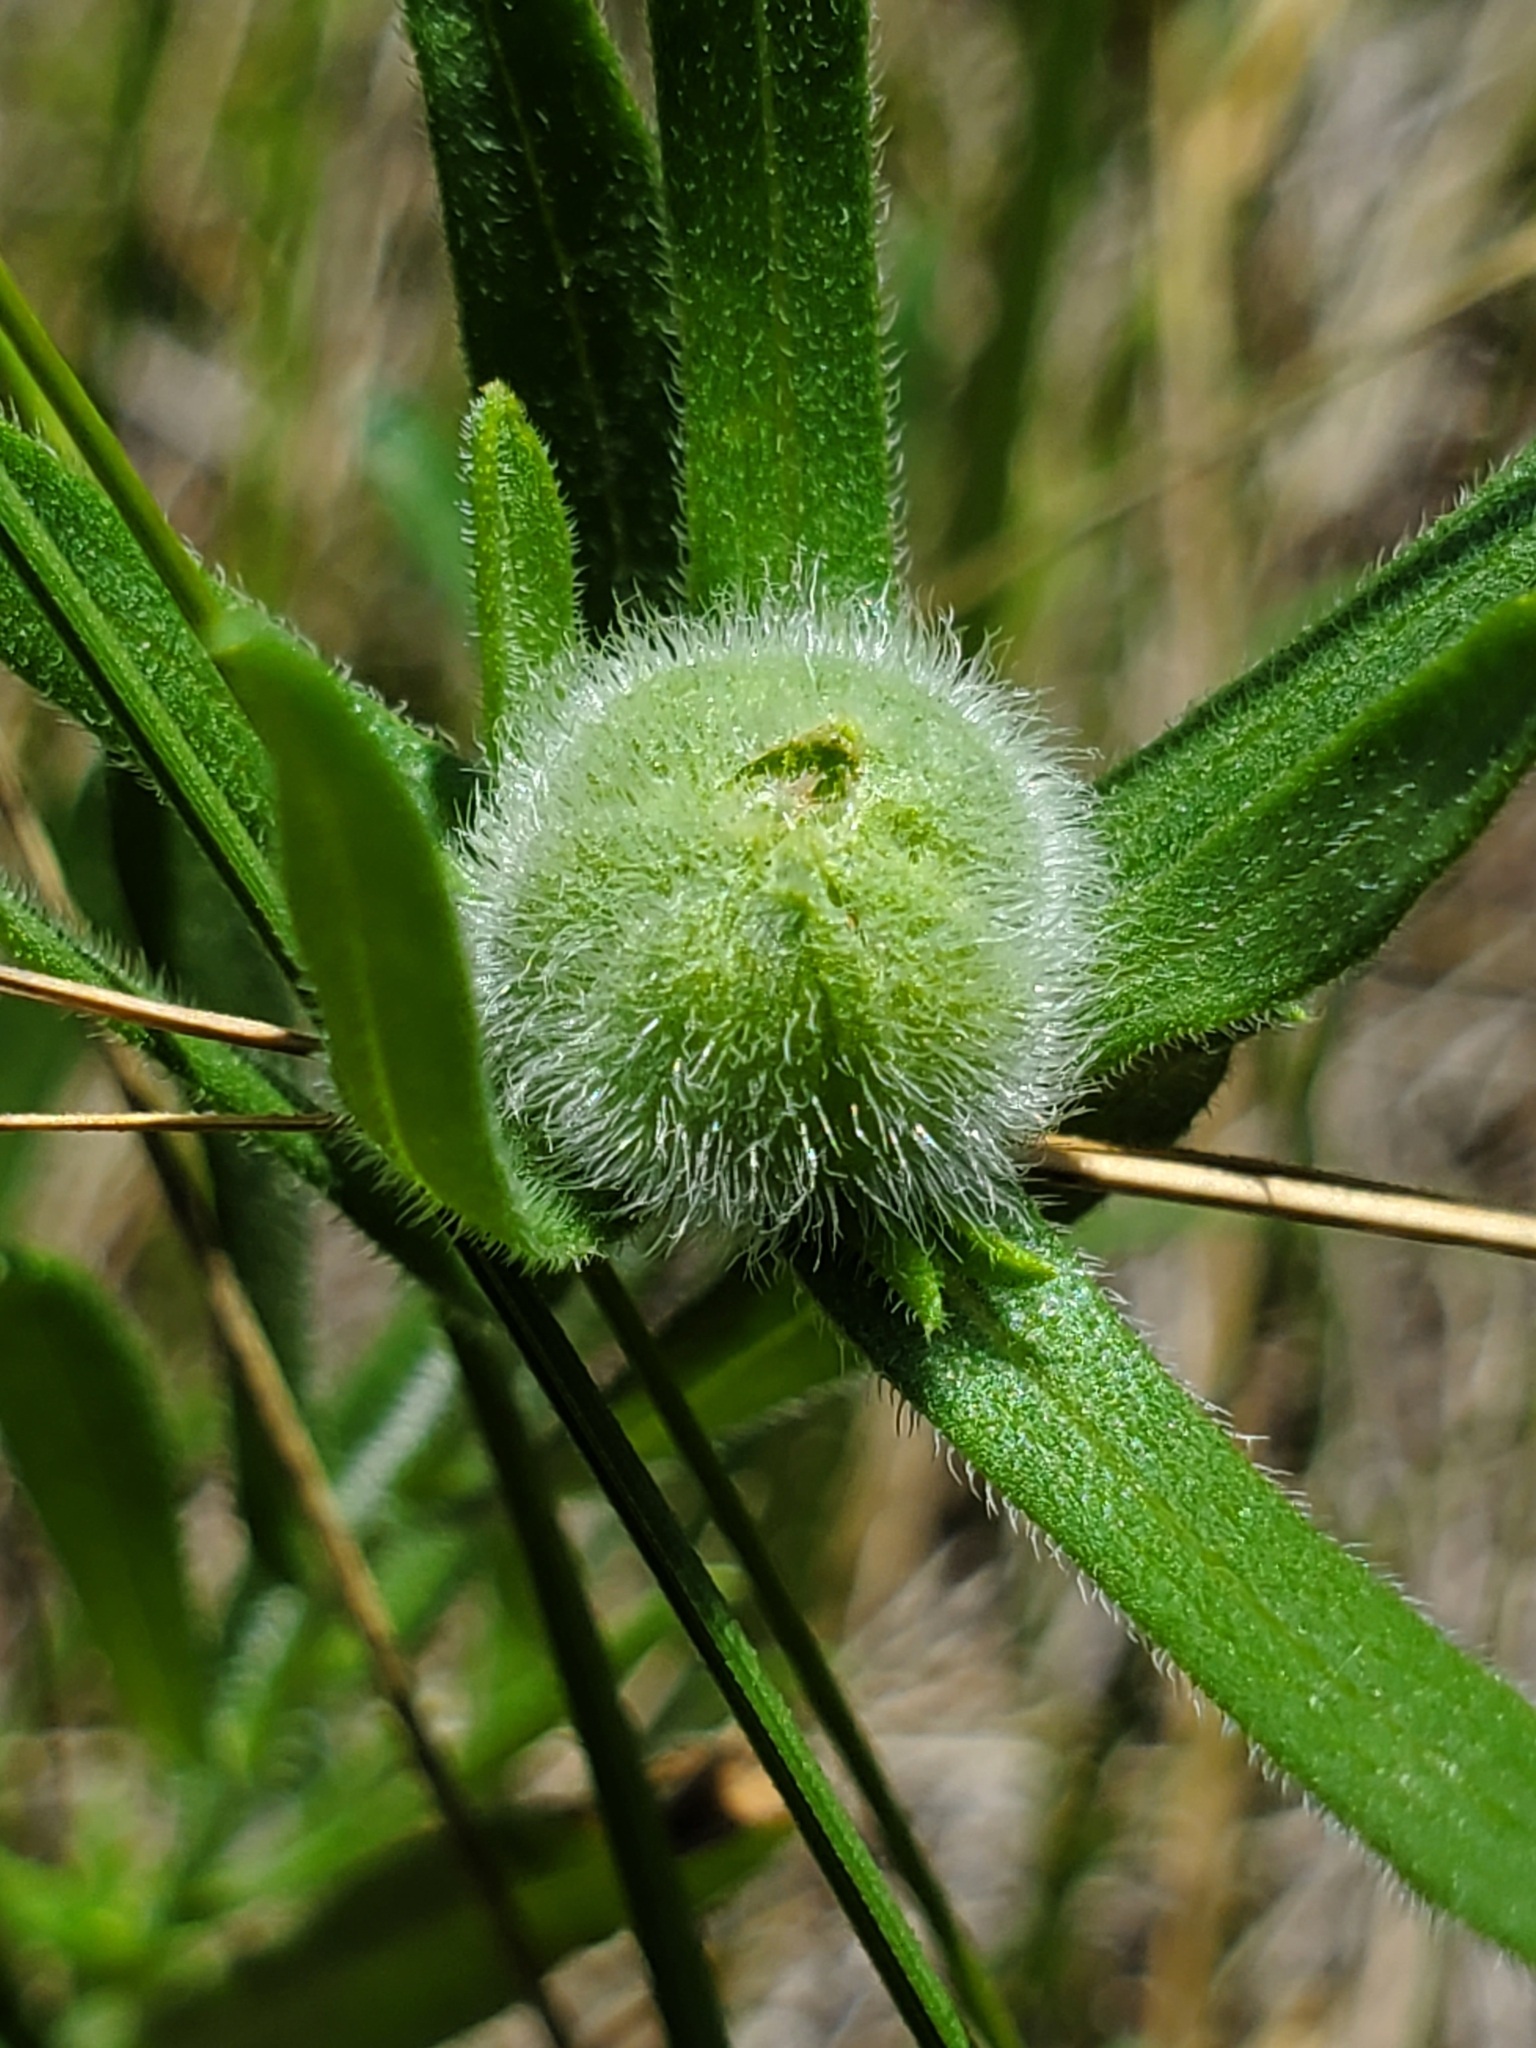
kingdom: Animalia
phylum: Arthropoda
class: Insecta
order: Diptera
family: Cecidomyiidae
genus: Rhopalomyia
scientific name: Rhopalomyia gemmaria
